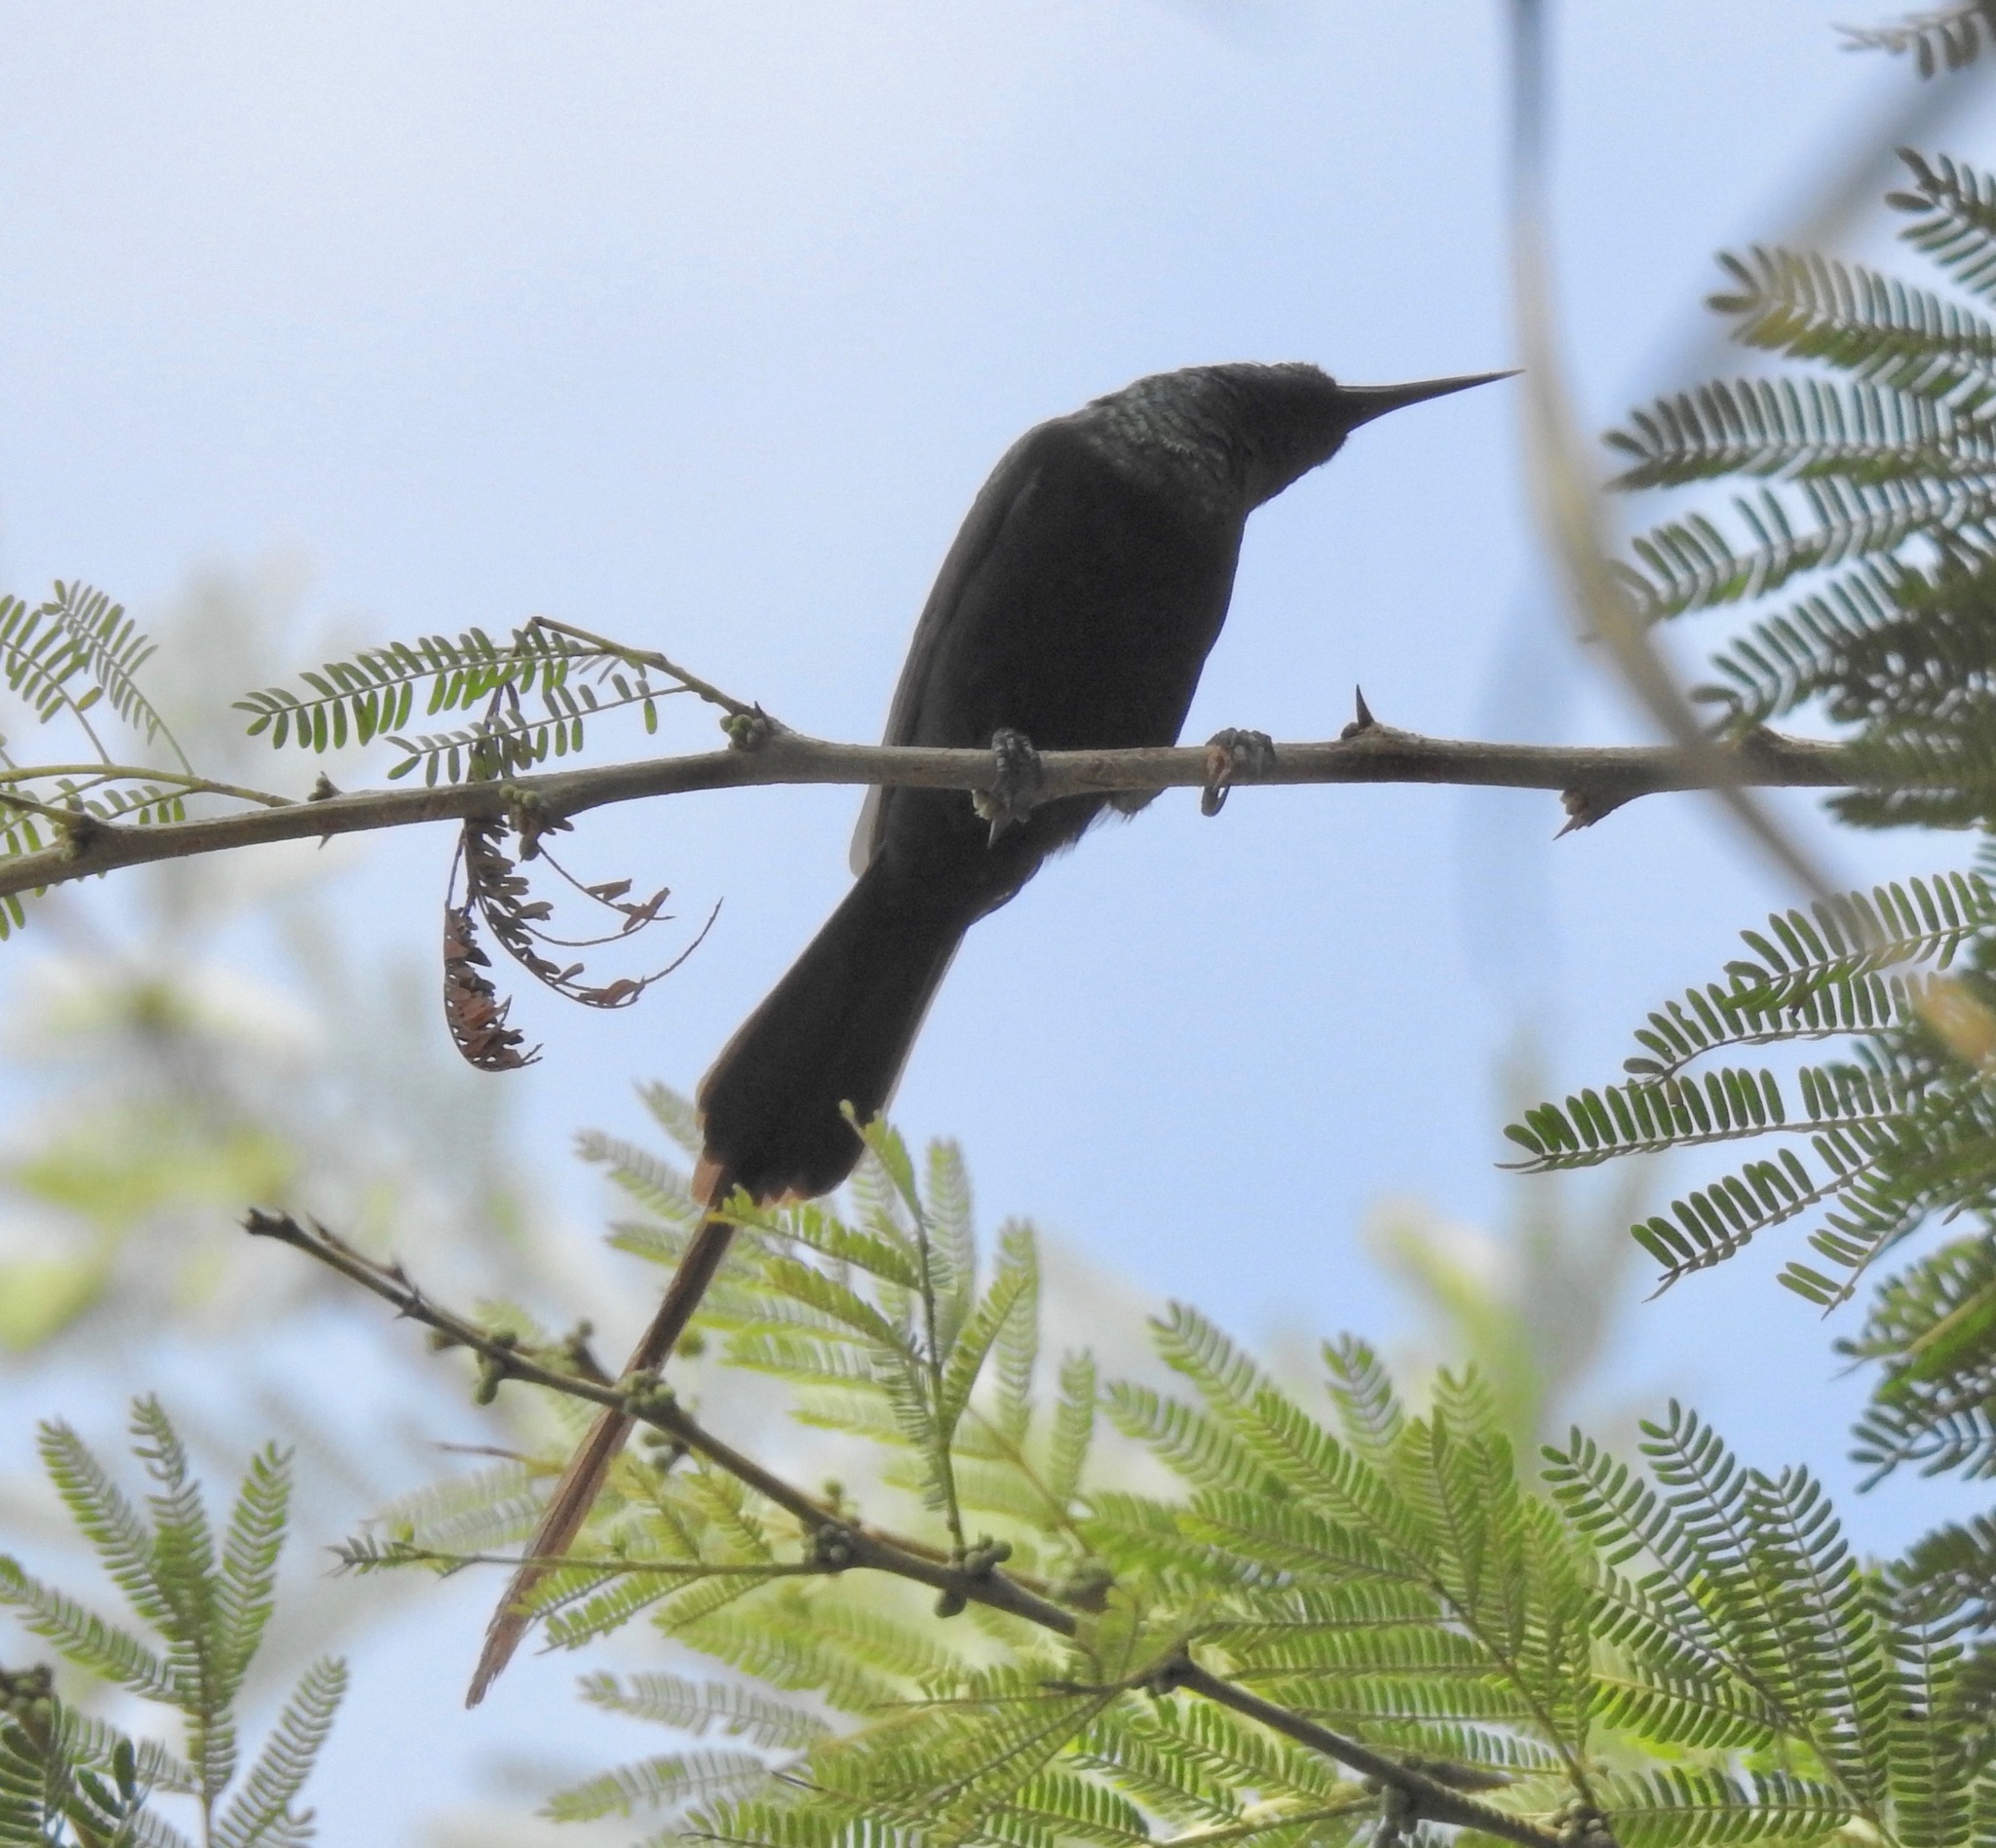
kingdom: Animalia
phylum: Chordata
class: Aves
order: Passeriformes
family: Nectariniidae
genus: Nectarinia
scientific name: Nectarinia kilimensis
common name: Bronzy sunbird
